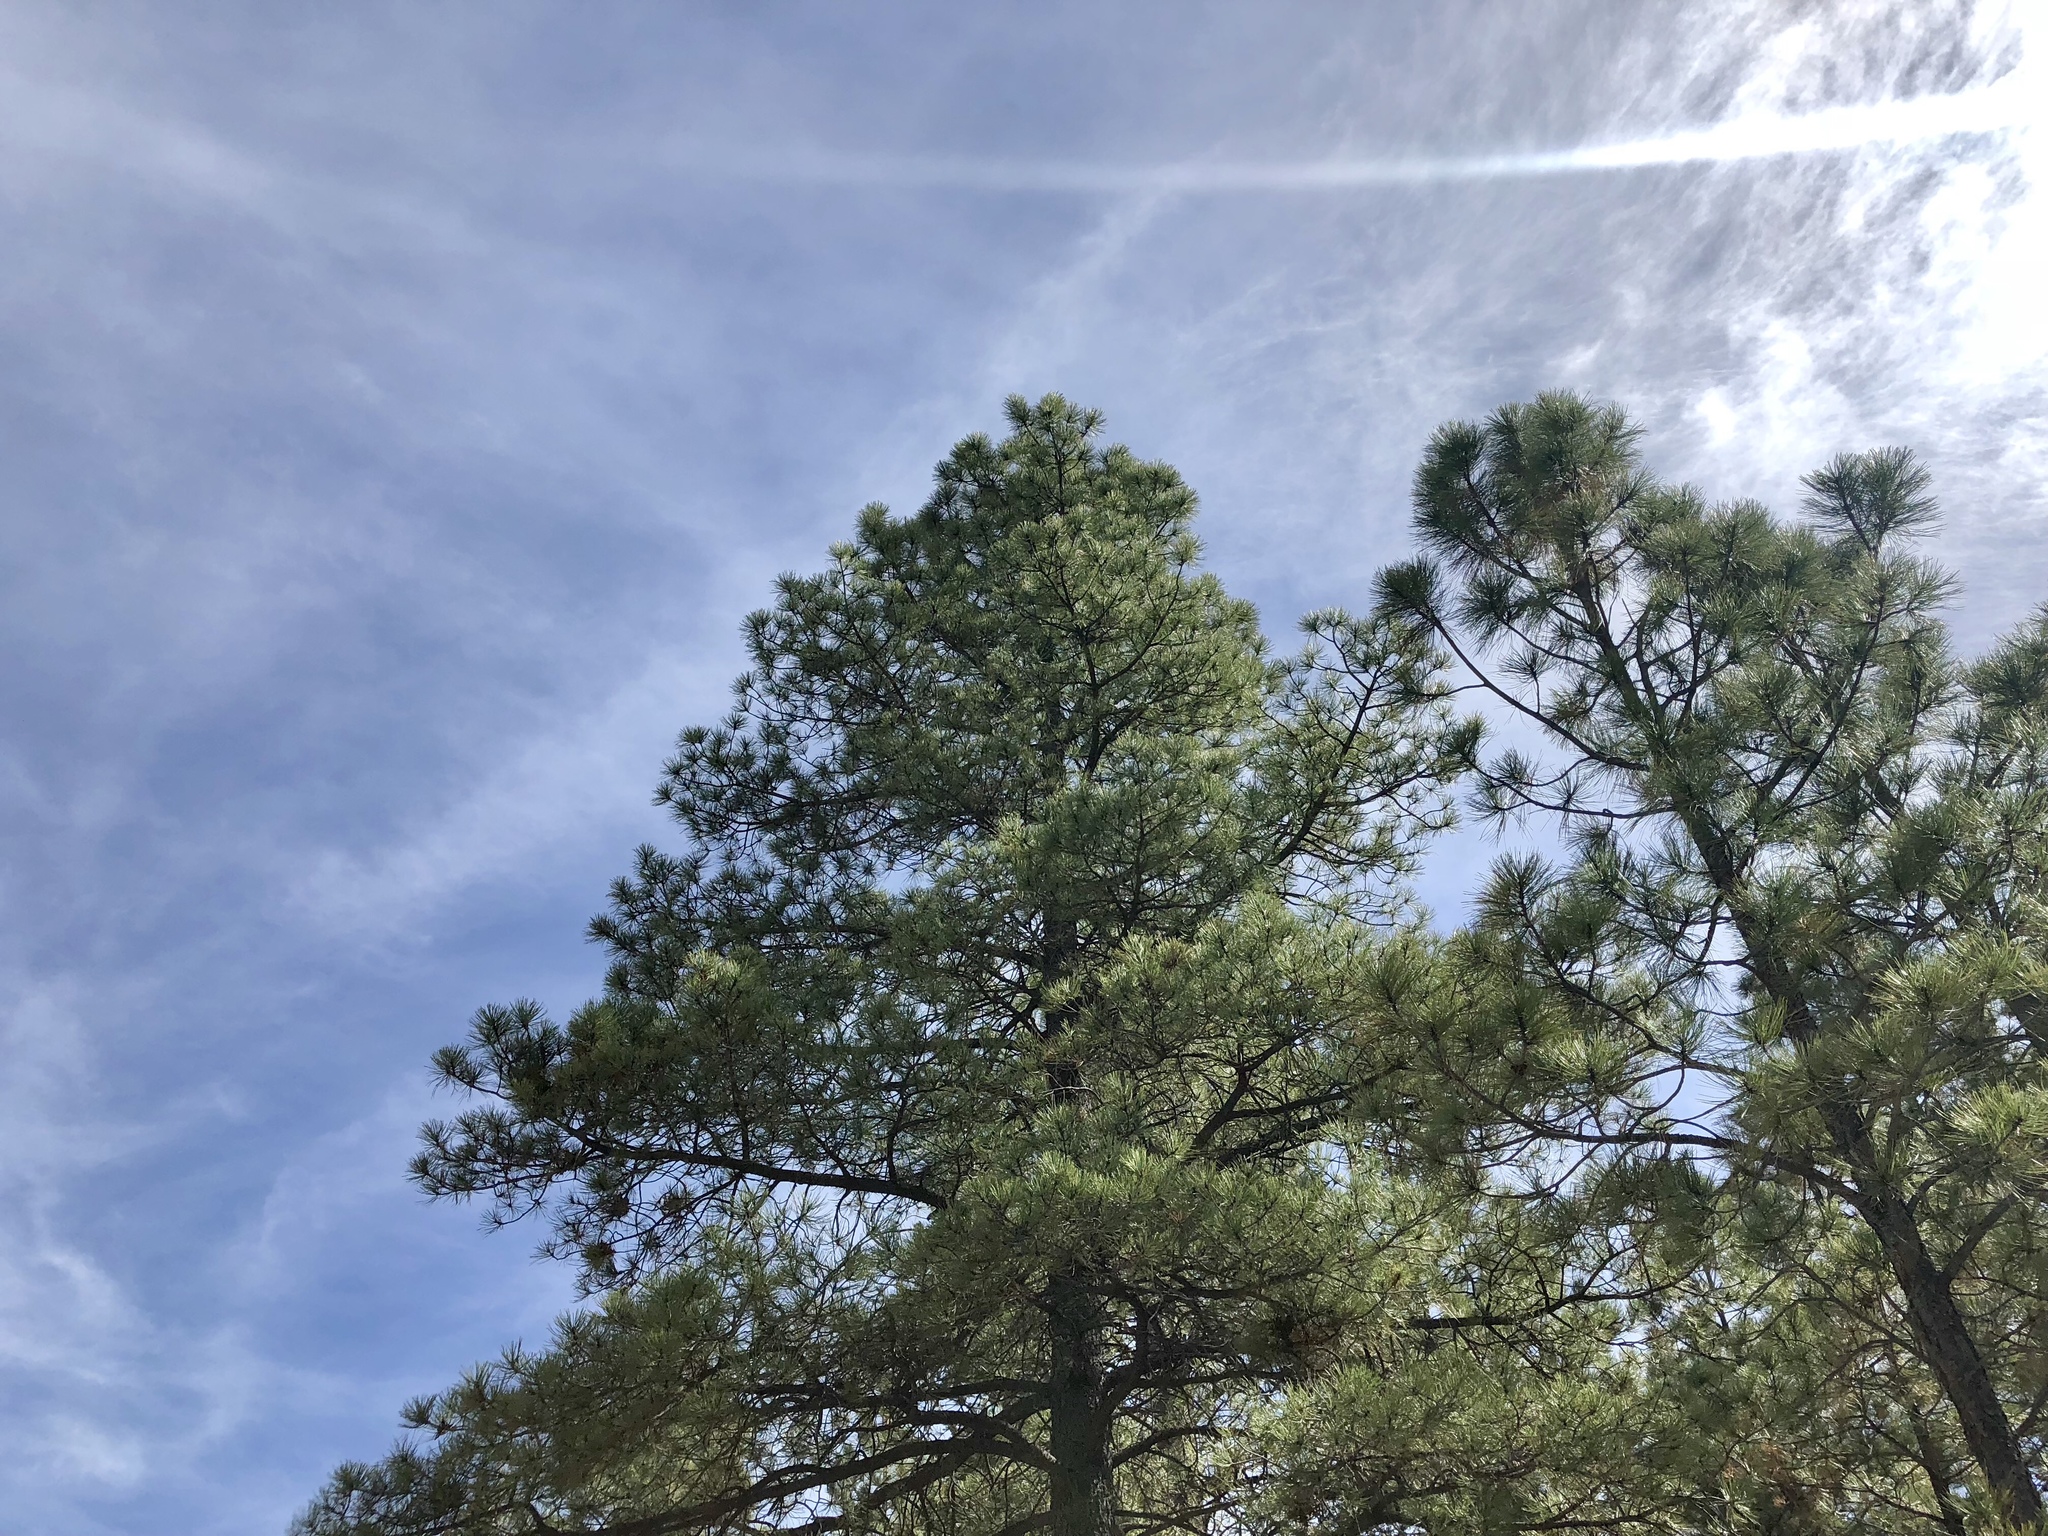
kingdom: Plantae
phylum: Tracheophyta
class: Pinopsida
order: Pinales
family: Pinaceae
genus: Pinus
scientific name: Pinus ponderosa
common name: Western yellow-pine
